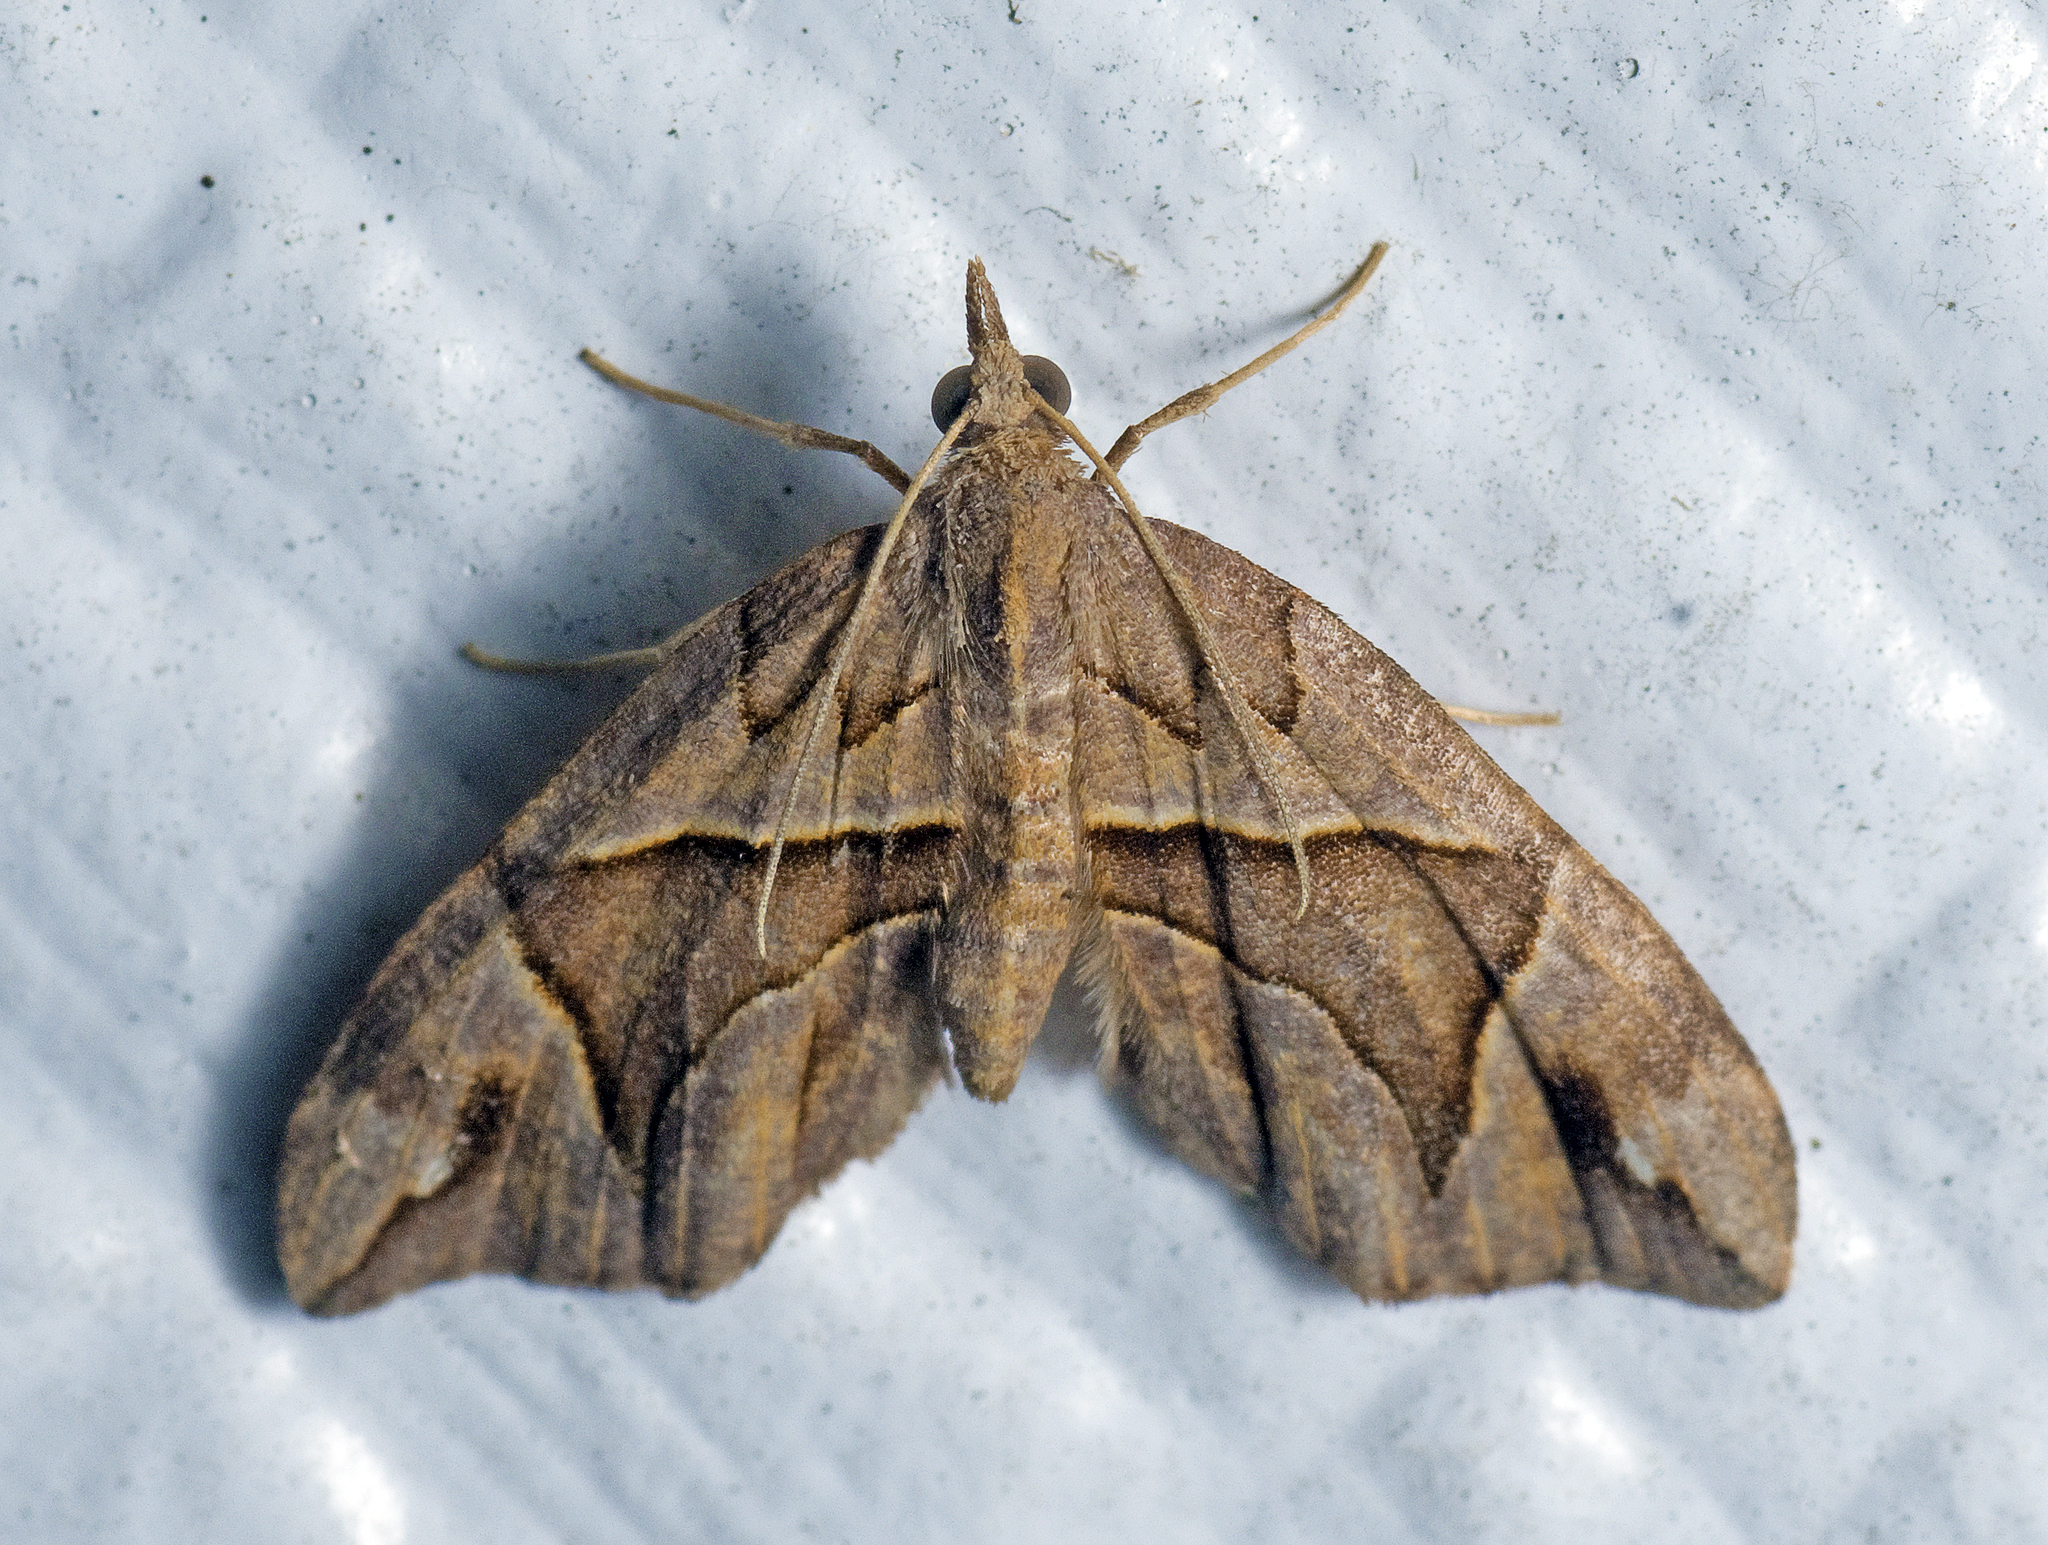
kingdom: Animalia
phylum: Arthropoda
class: Insecta
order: Lepidoptera
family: Geometridae
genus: Chaetolopha
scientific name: Chaetolopha oxyntis
